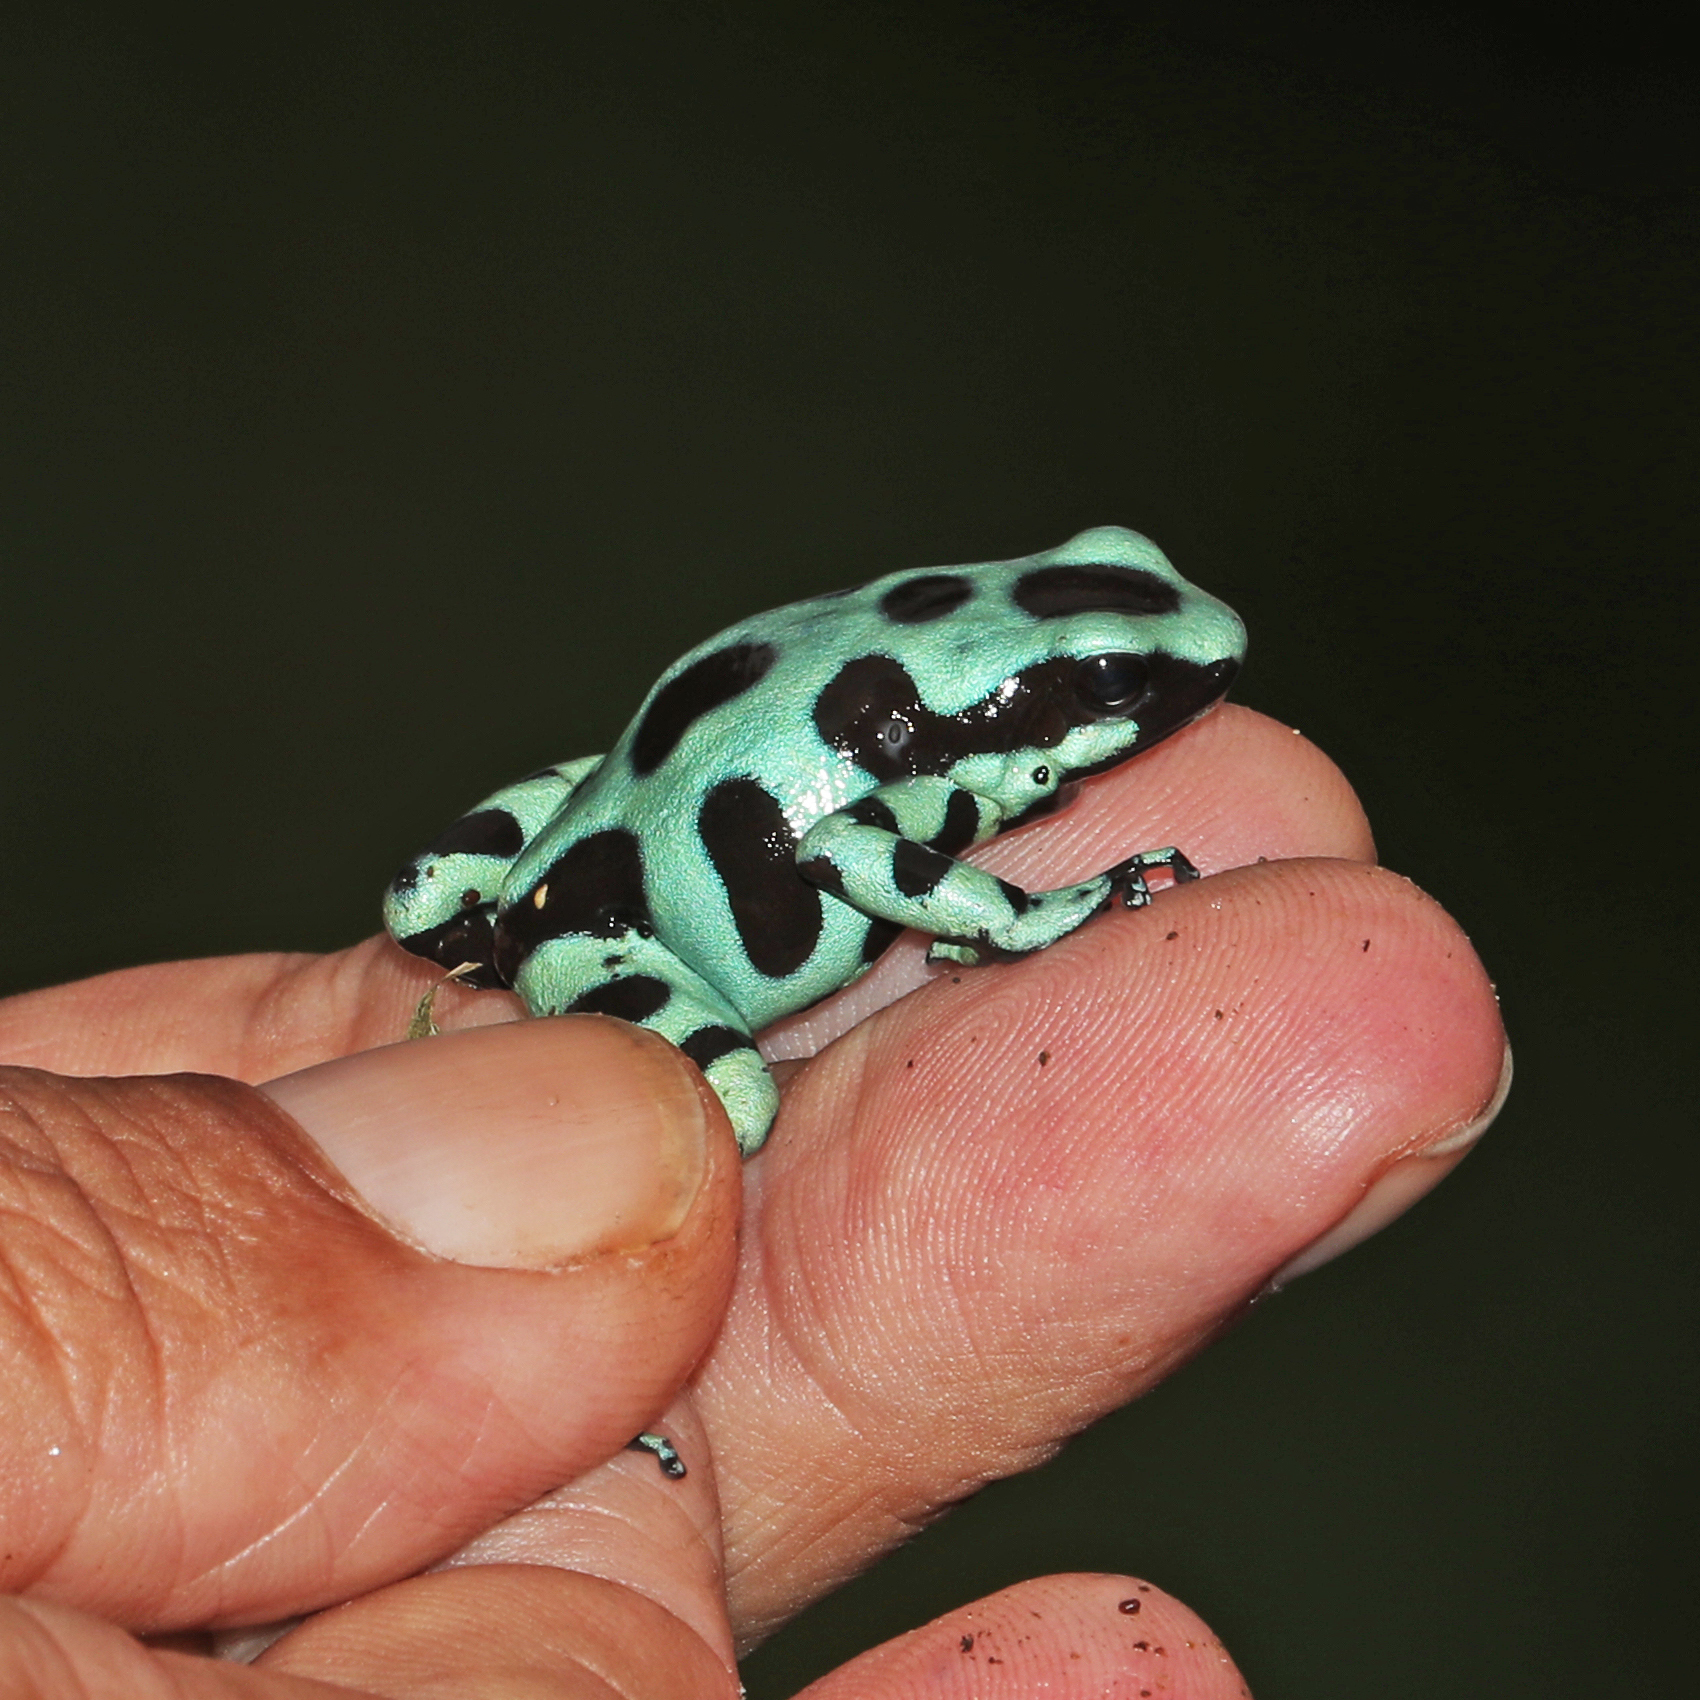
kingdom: Animalia
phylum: Chordata
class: Amphibia
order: Anura
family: Dendrobatidae
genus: Dendrobates
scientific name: Dendrobates auratus
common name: Green and black poison dart frog
